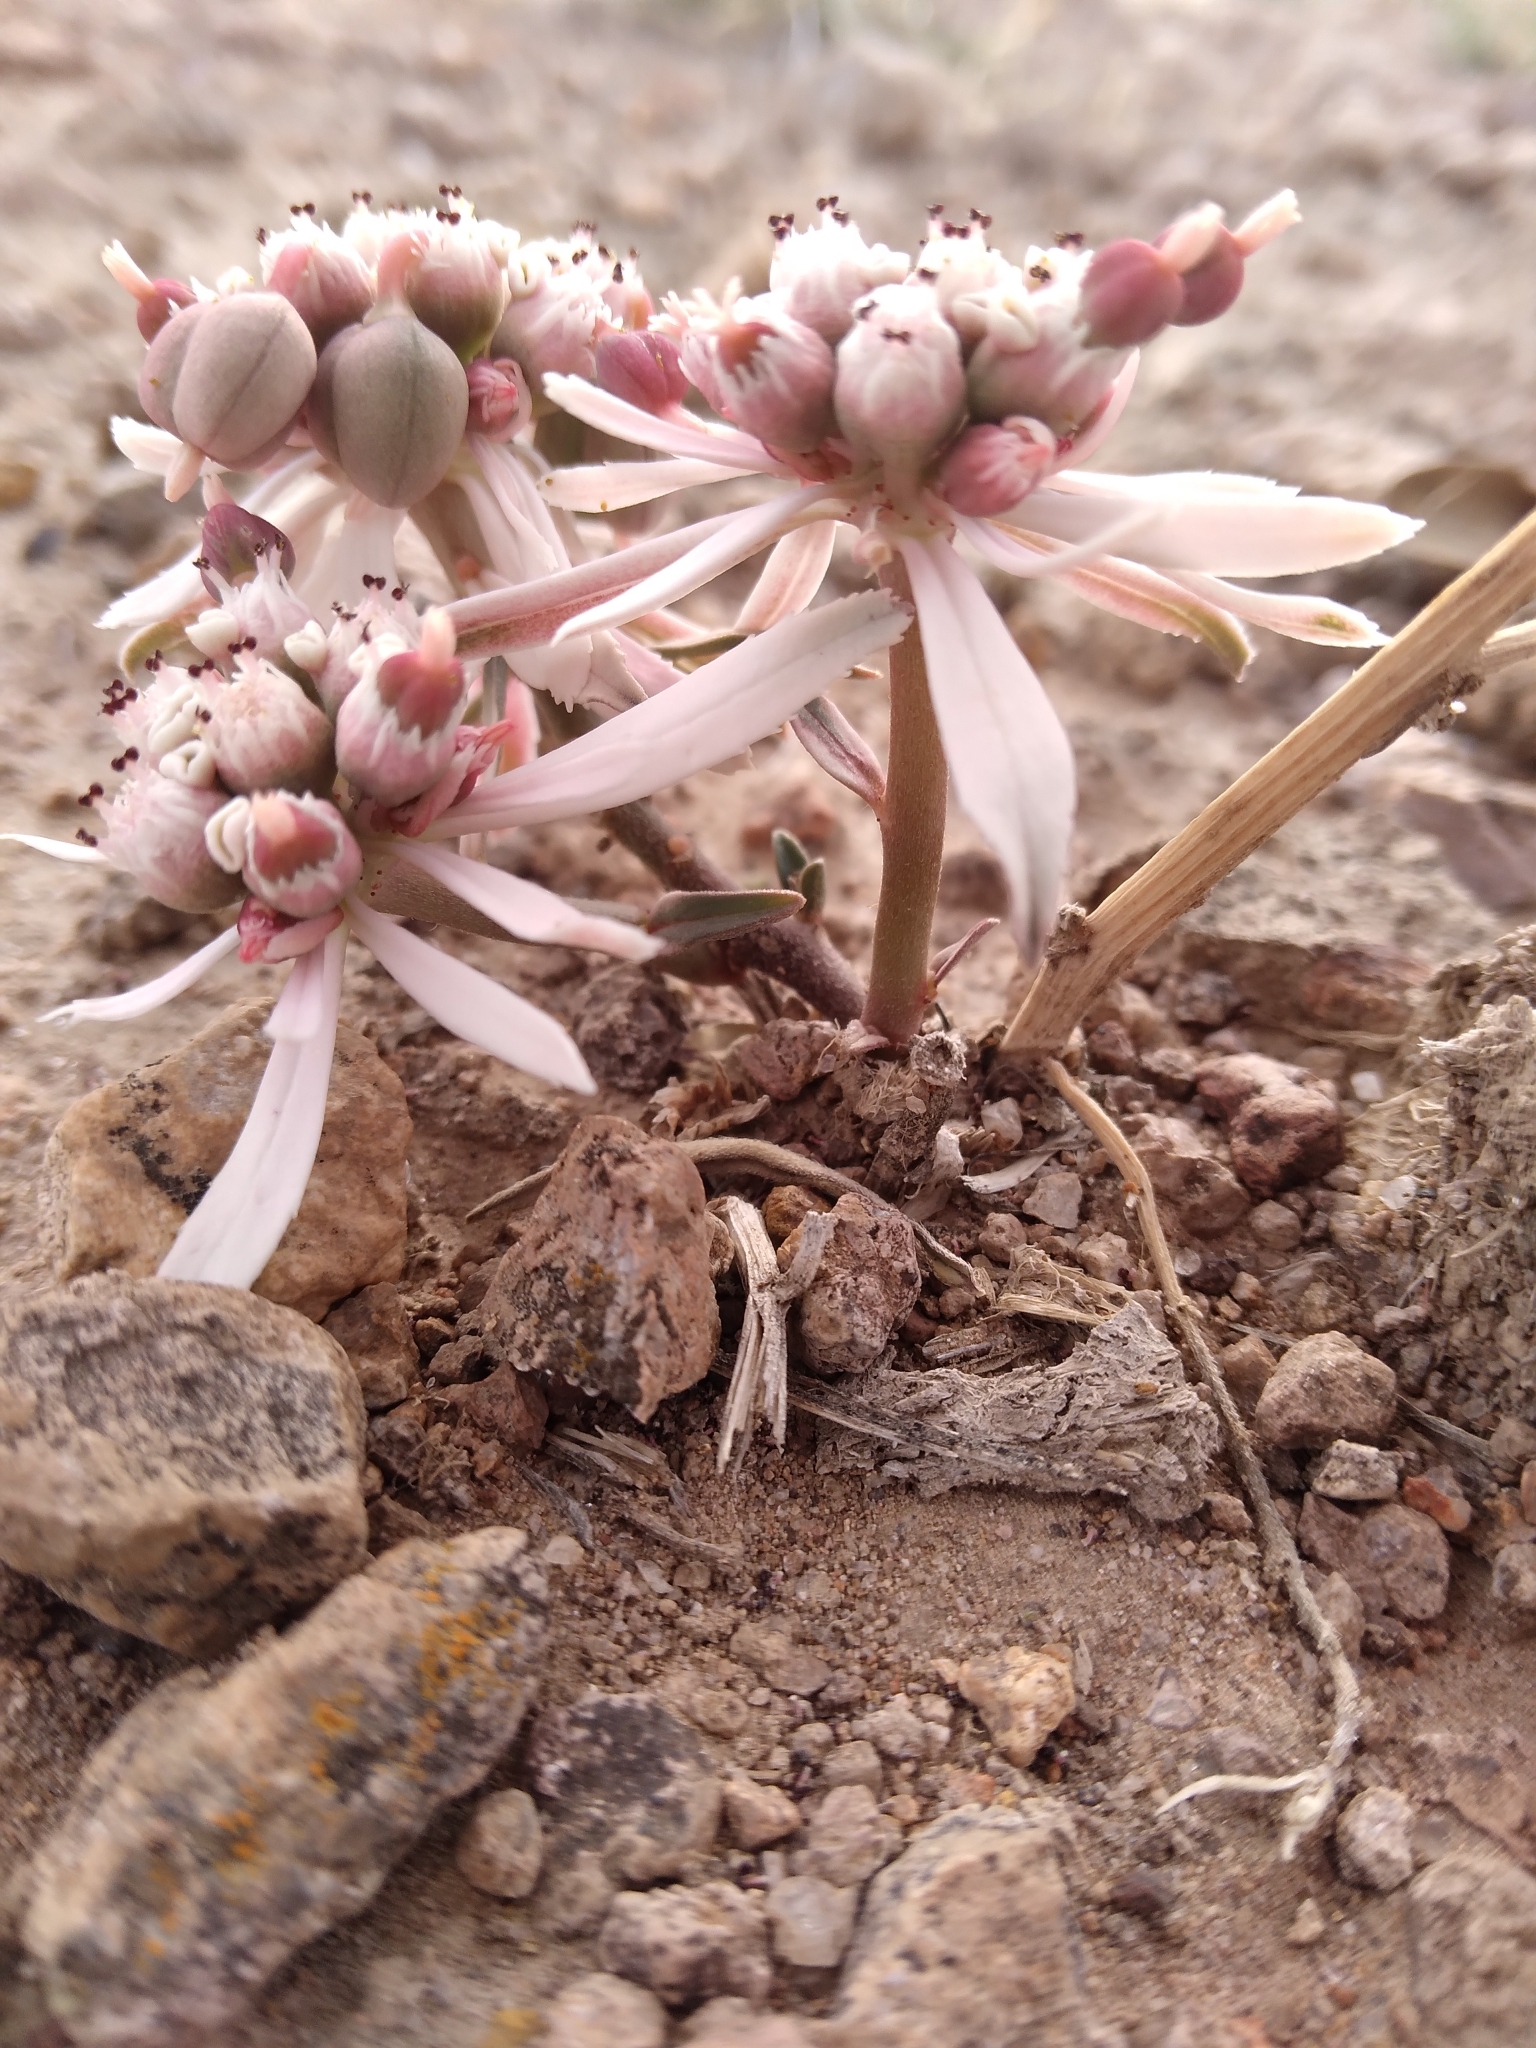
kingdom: Plantae
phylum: Tracheophyta
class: Magnoliopsida
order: Malpighiales
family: Euphorbiaceae
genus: Euphorbia
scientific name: Euphorbia radians
